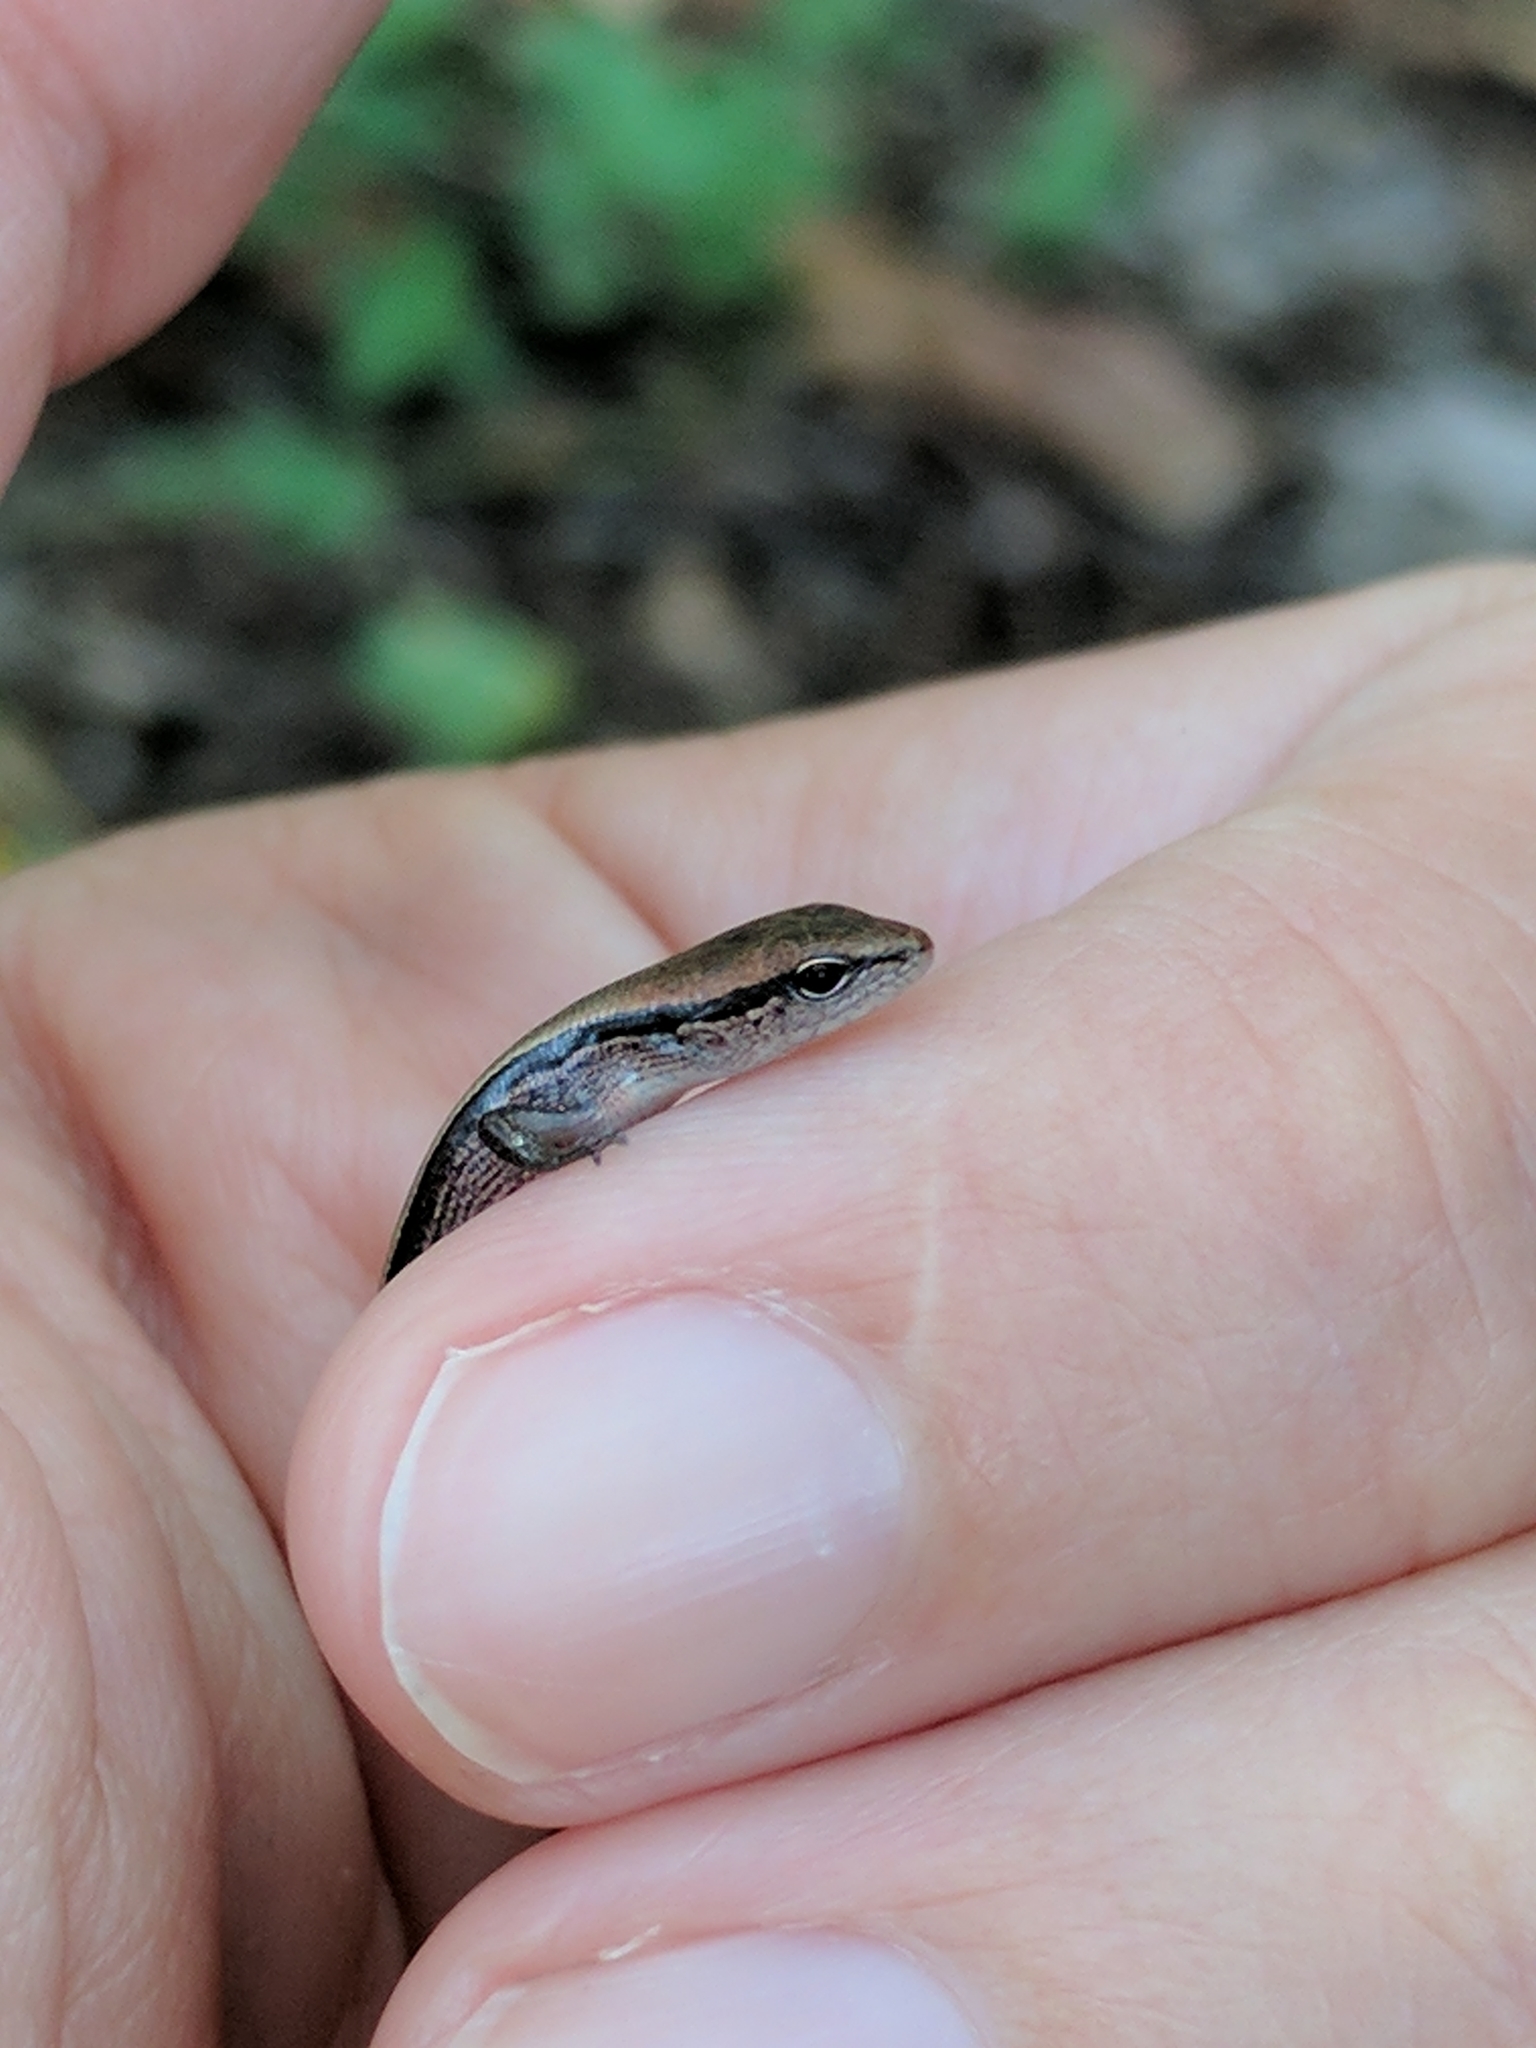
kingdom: Animalia
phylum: Chordata
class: Squamata
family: Scincidae
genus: Scincella
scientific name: Scincella lateralis
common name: Ground skink
